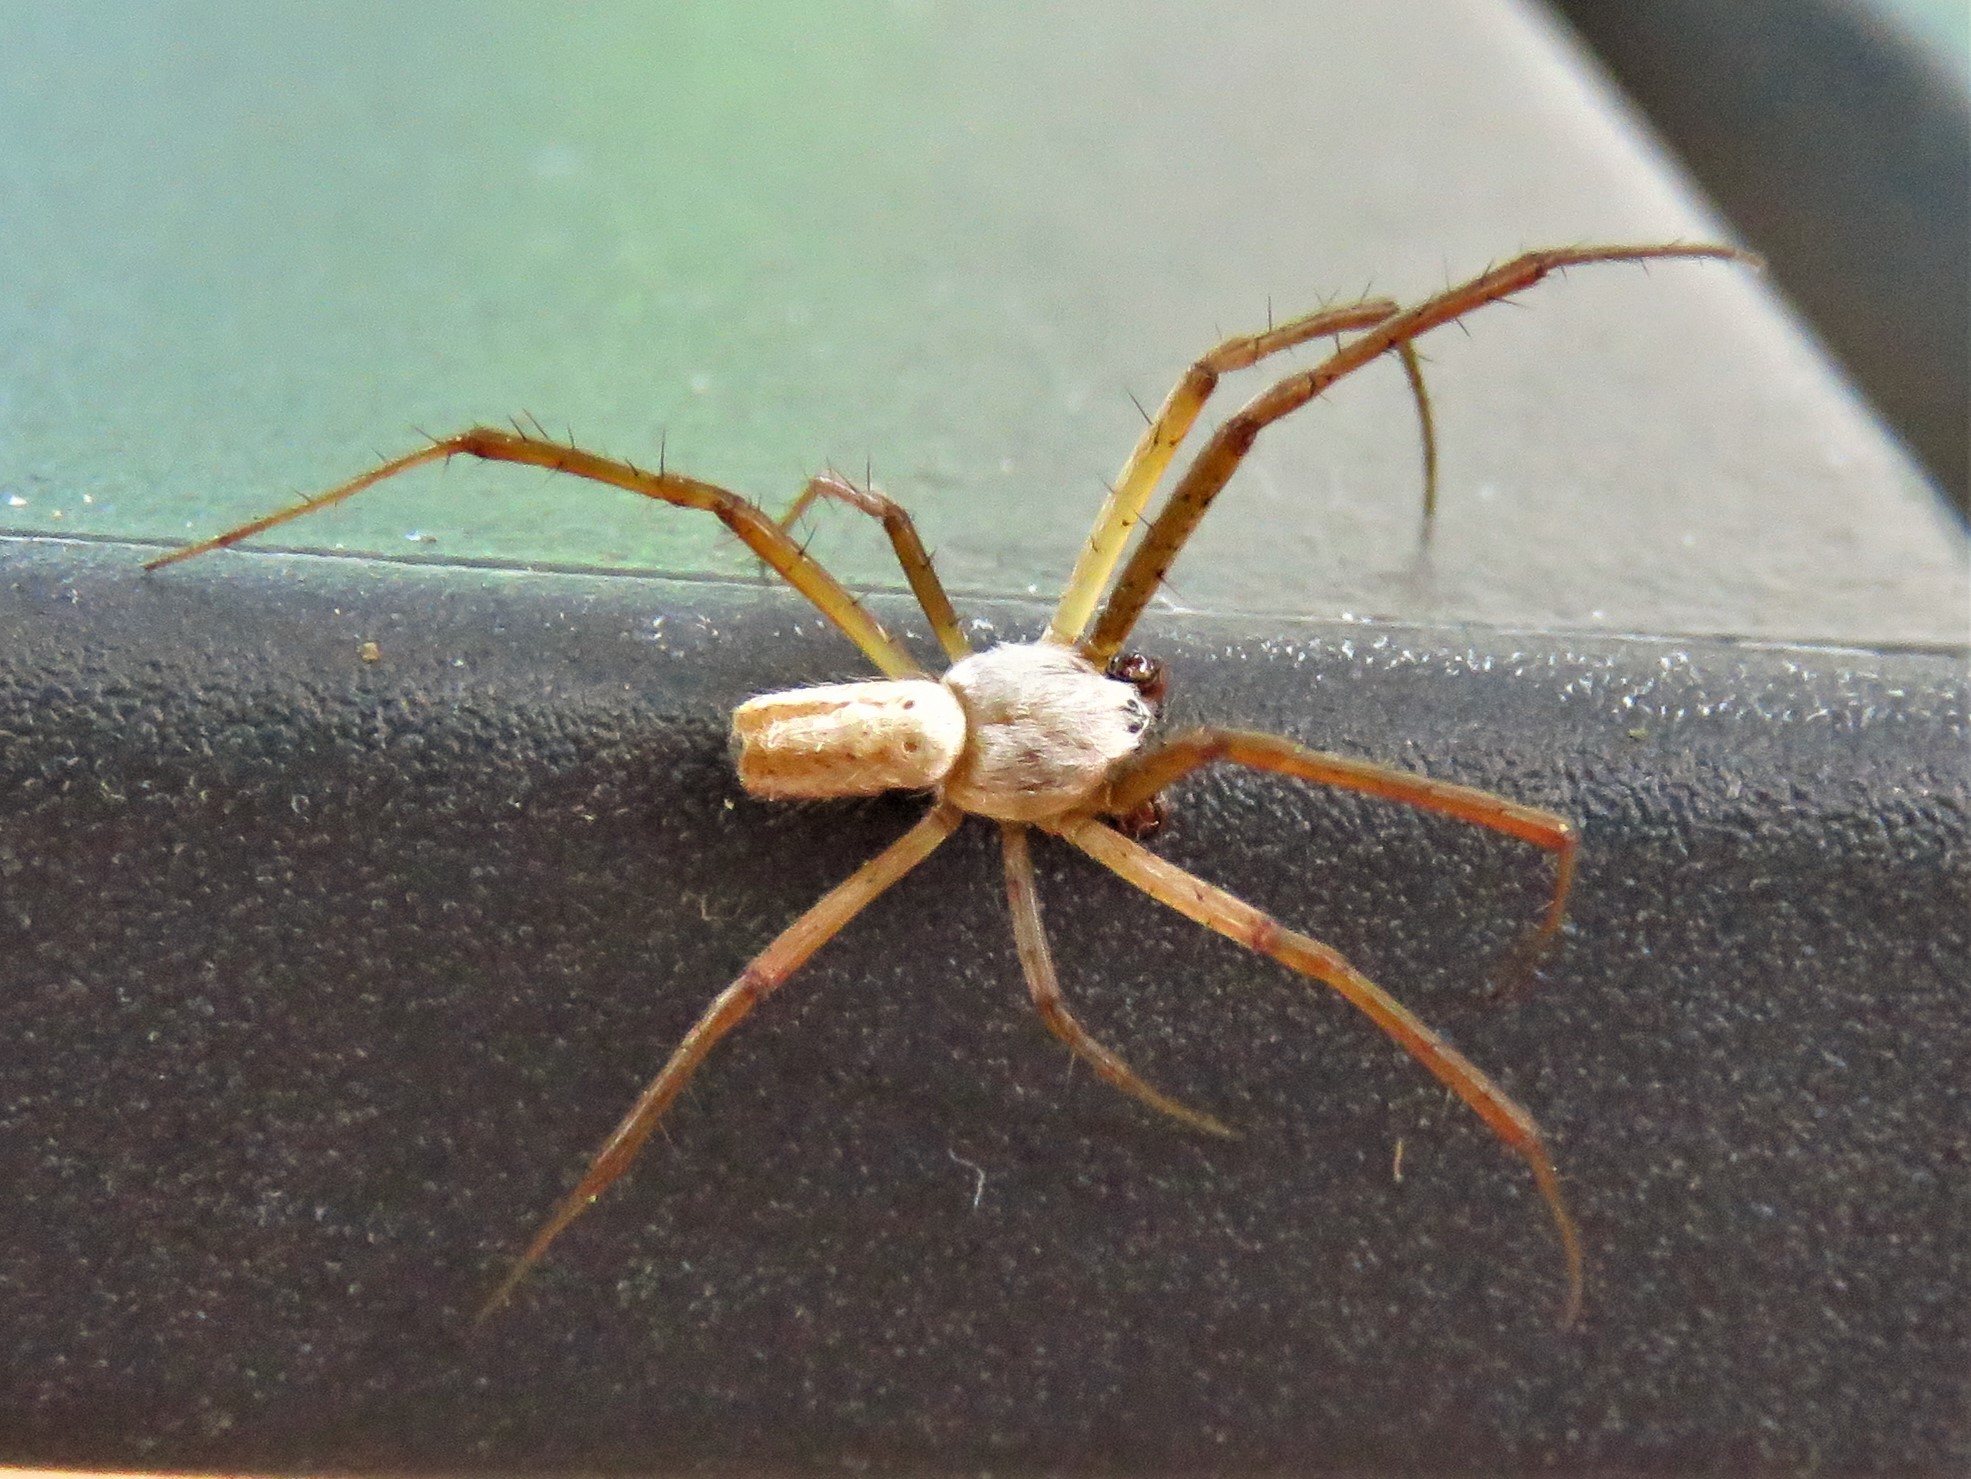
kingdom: Animalia
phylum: Arthropoda
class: Arachnida
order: Araneae
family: Araneidae
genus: Argiope
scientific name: Argiope trifasciata
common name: Banded garden spider
